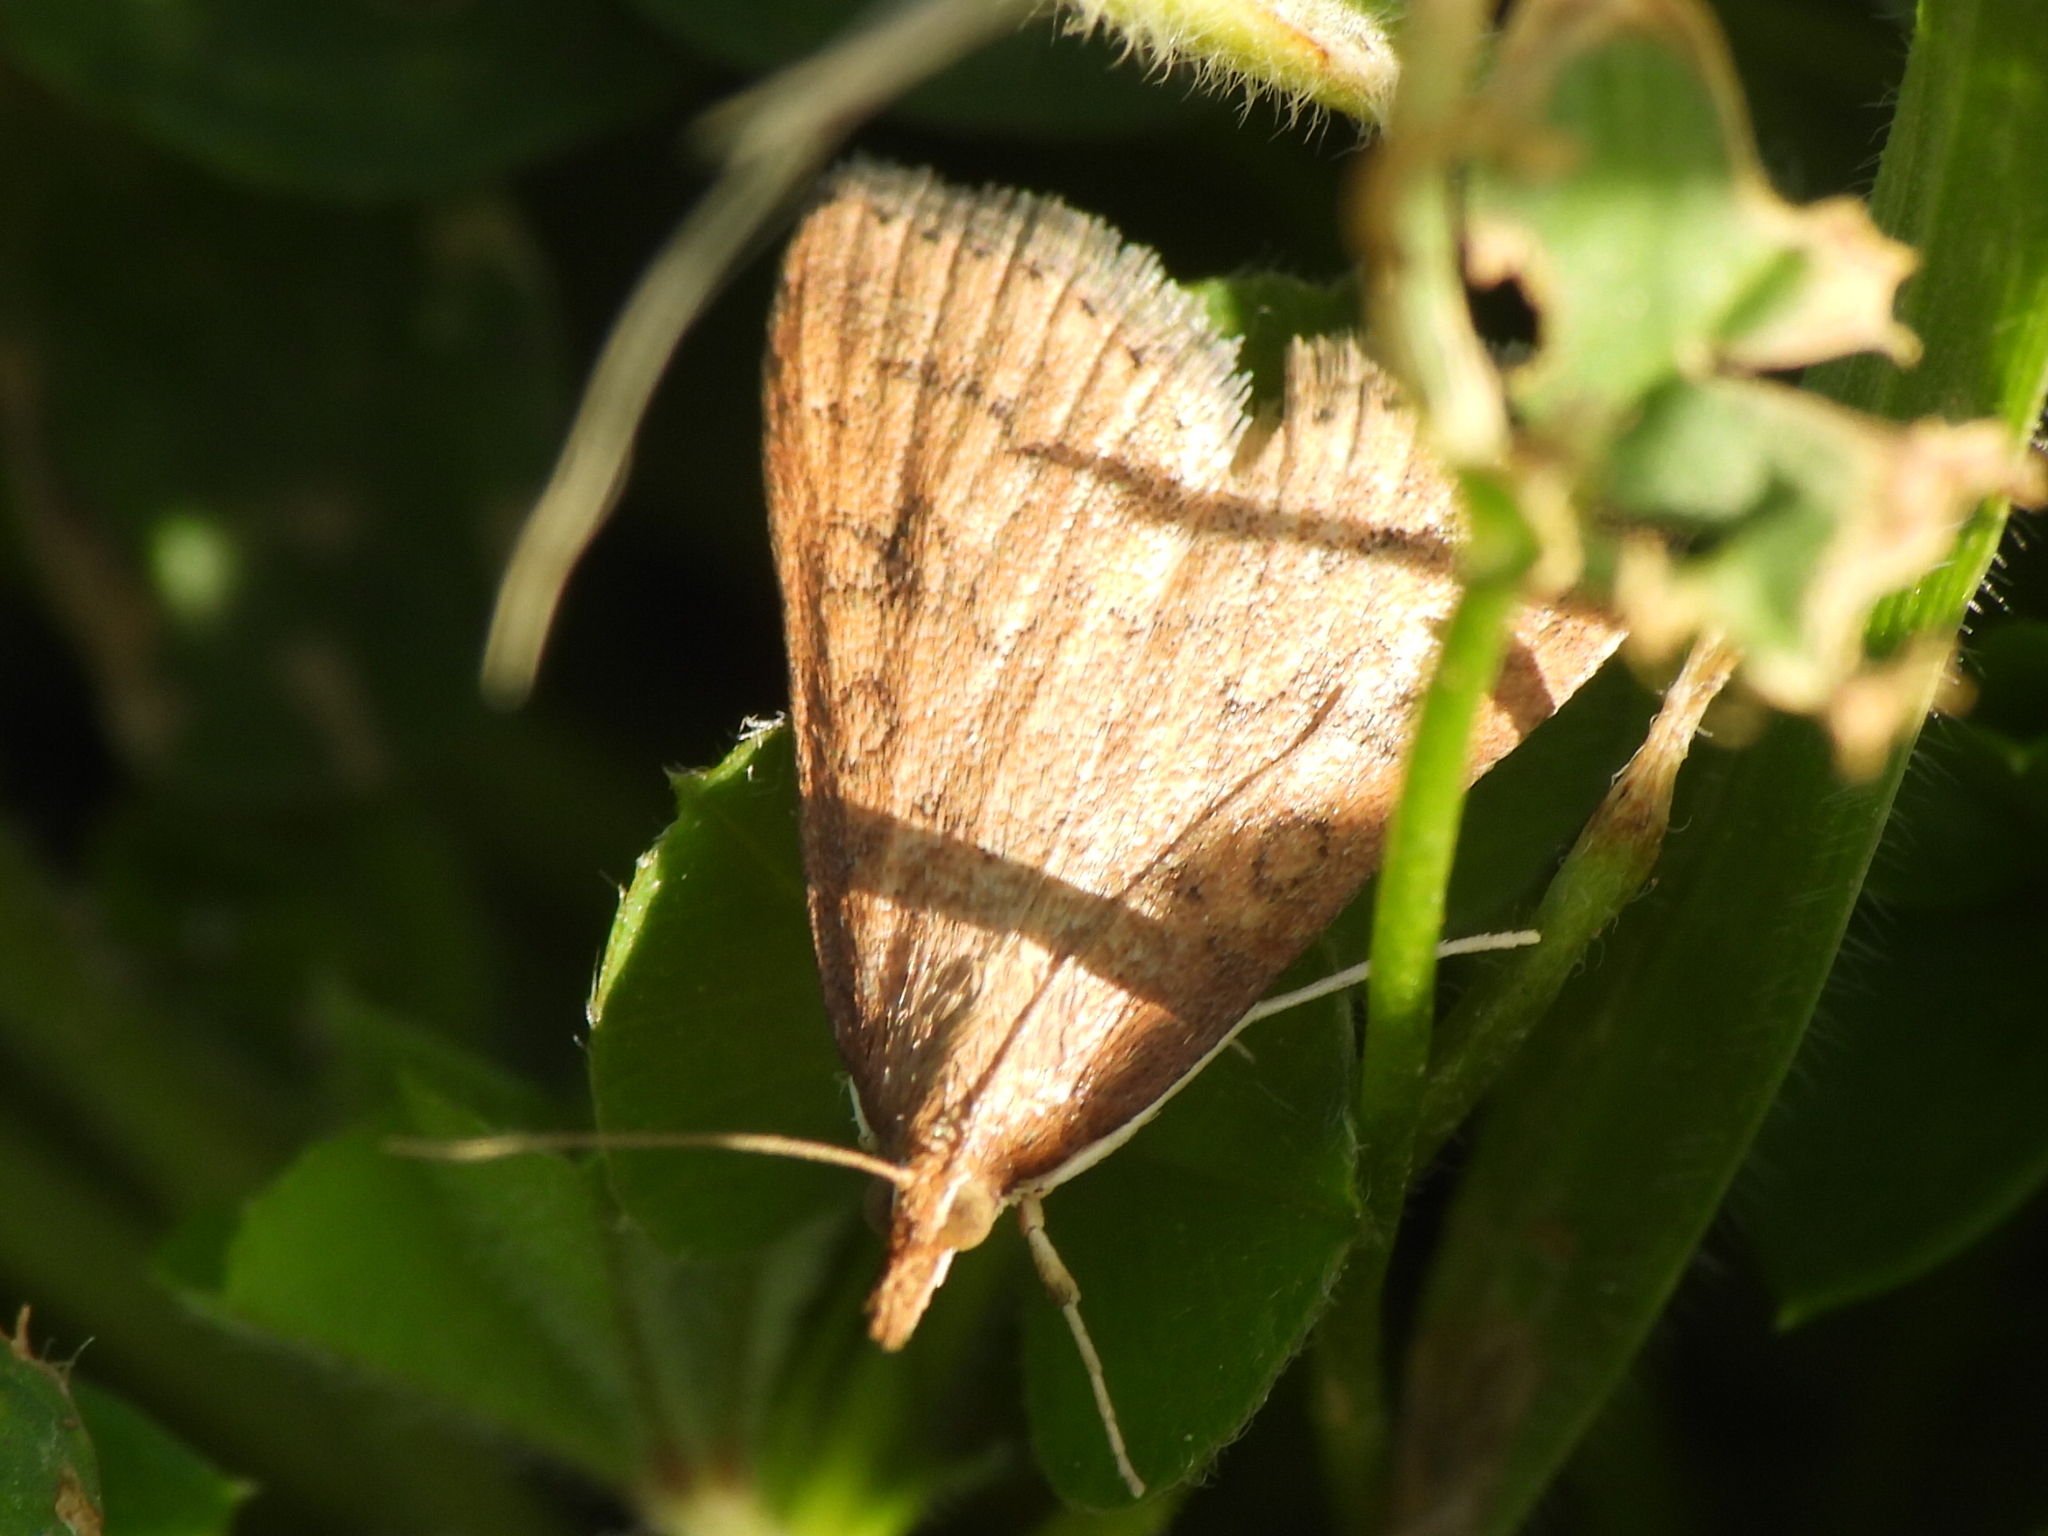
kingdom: Animalia
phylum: Arthropoda
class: Insecta
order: Lepidoptera
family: Crambidae
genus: Udea
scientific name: Udea rubigalis
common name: Celery leaftier moth
